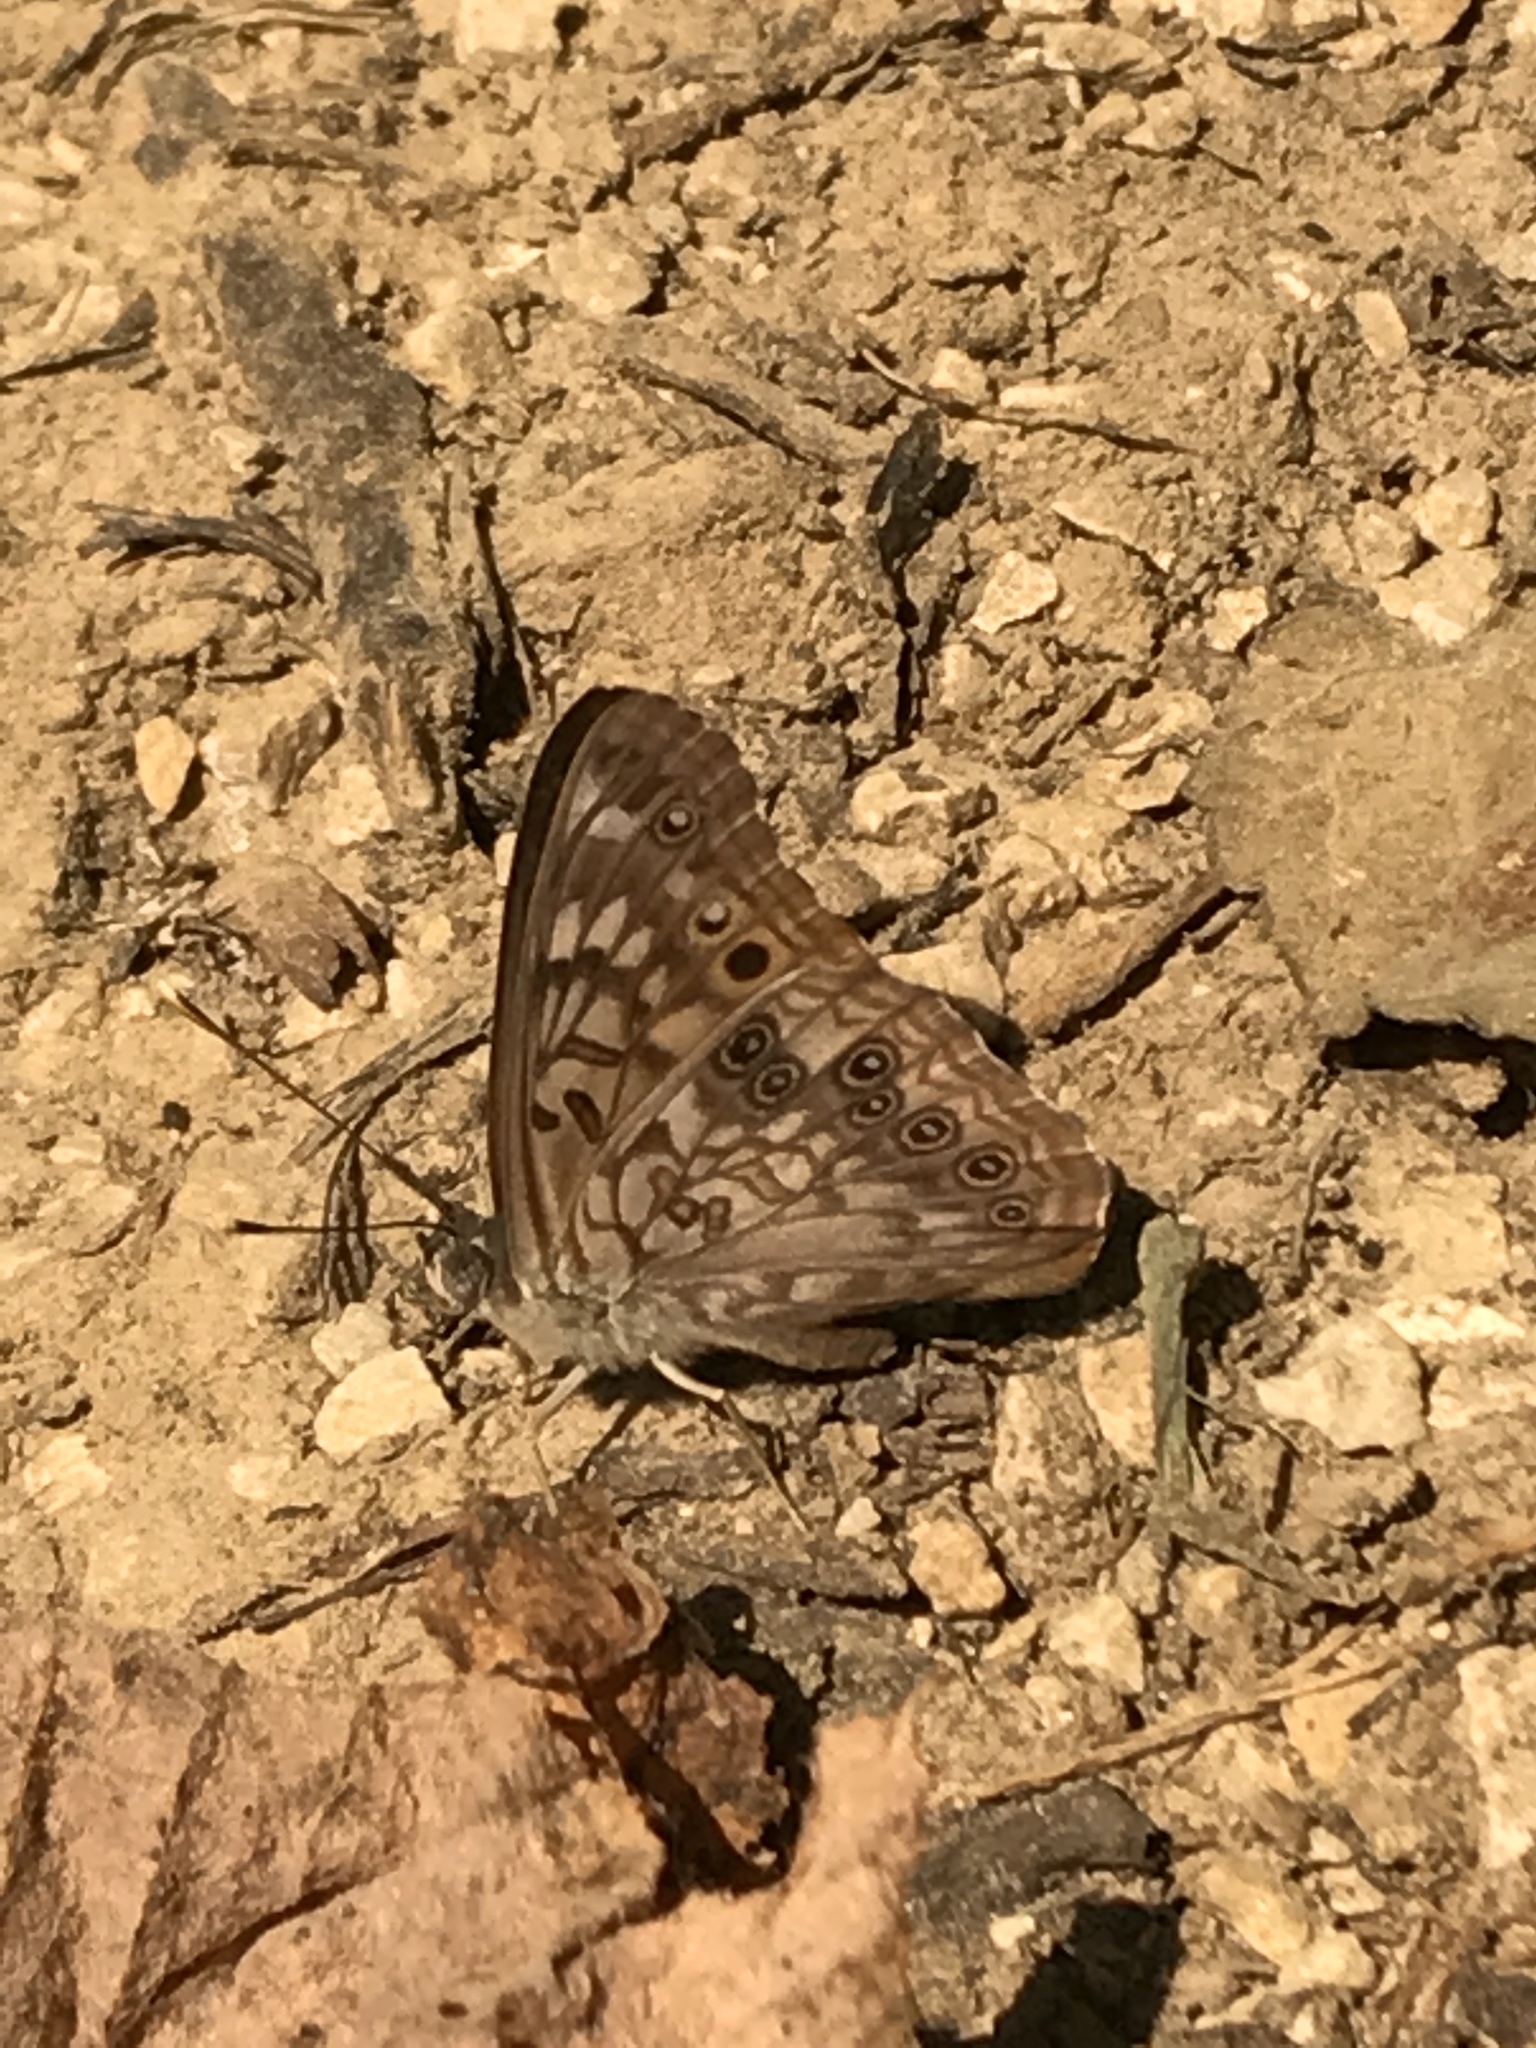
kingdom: Animalia
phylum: Arthropoda
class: Insecta
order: Lepidoptera
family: Nymphalidae
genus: Asterocampa
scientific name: Asterocampa celtis
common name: Hackberry emperor
